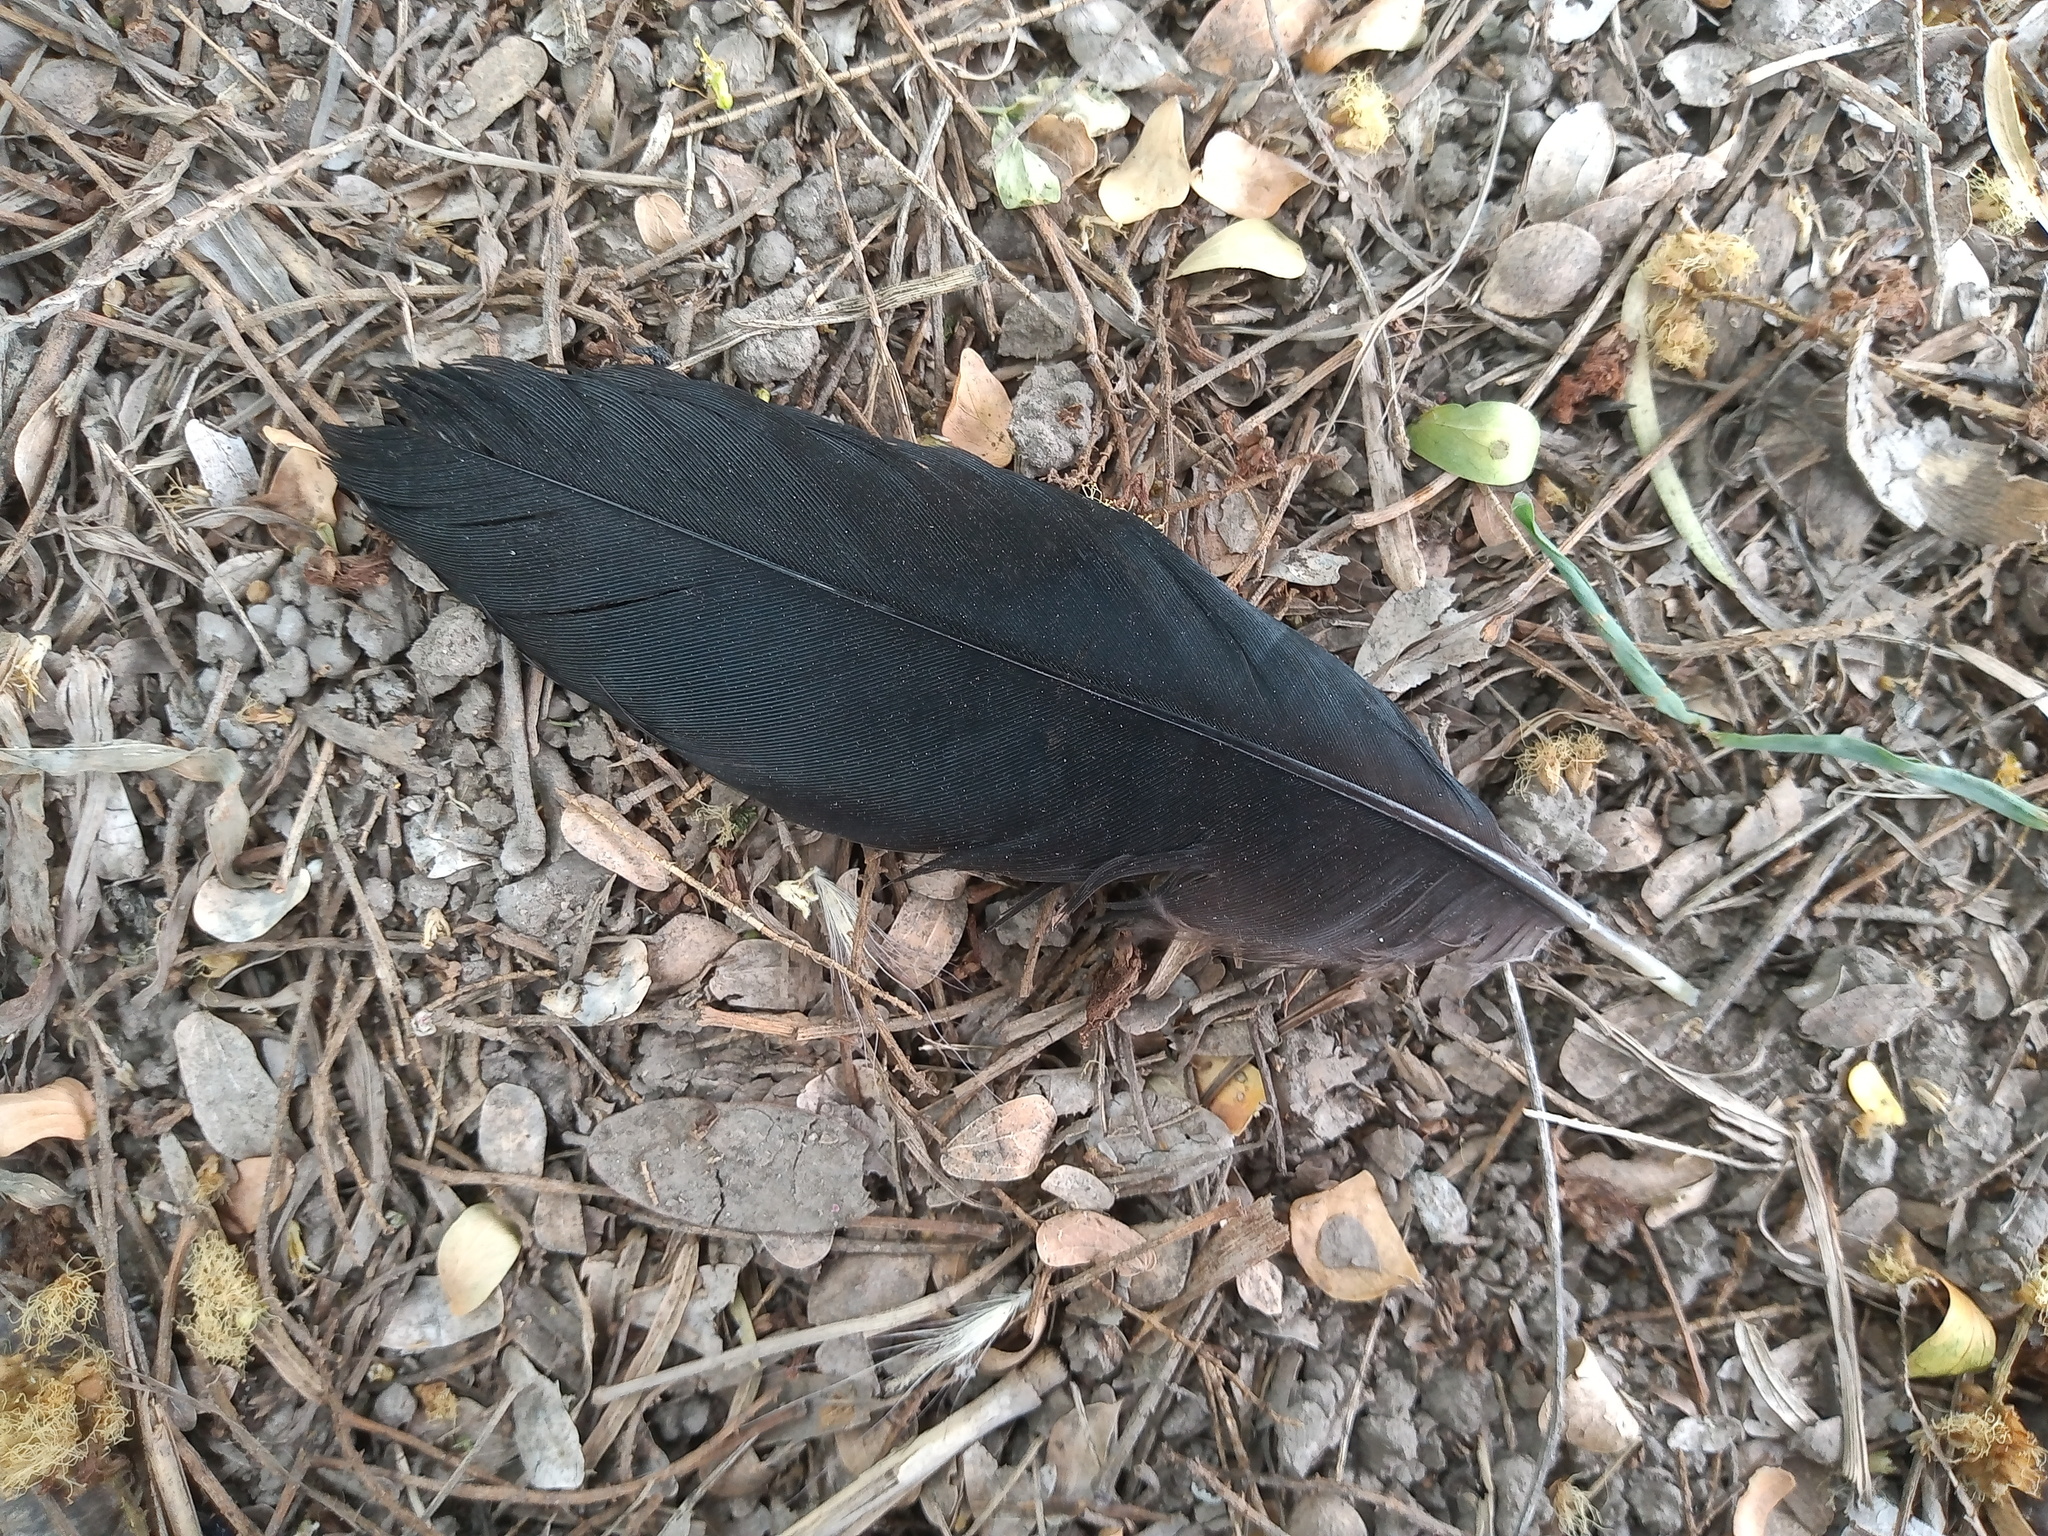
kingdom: Animalia
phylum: Chordata
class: Aves
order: Passeriformes
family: Icteridae
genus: Quiscalus
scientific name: Quiscalus mexicanus
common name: Great-tailed grackle
